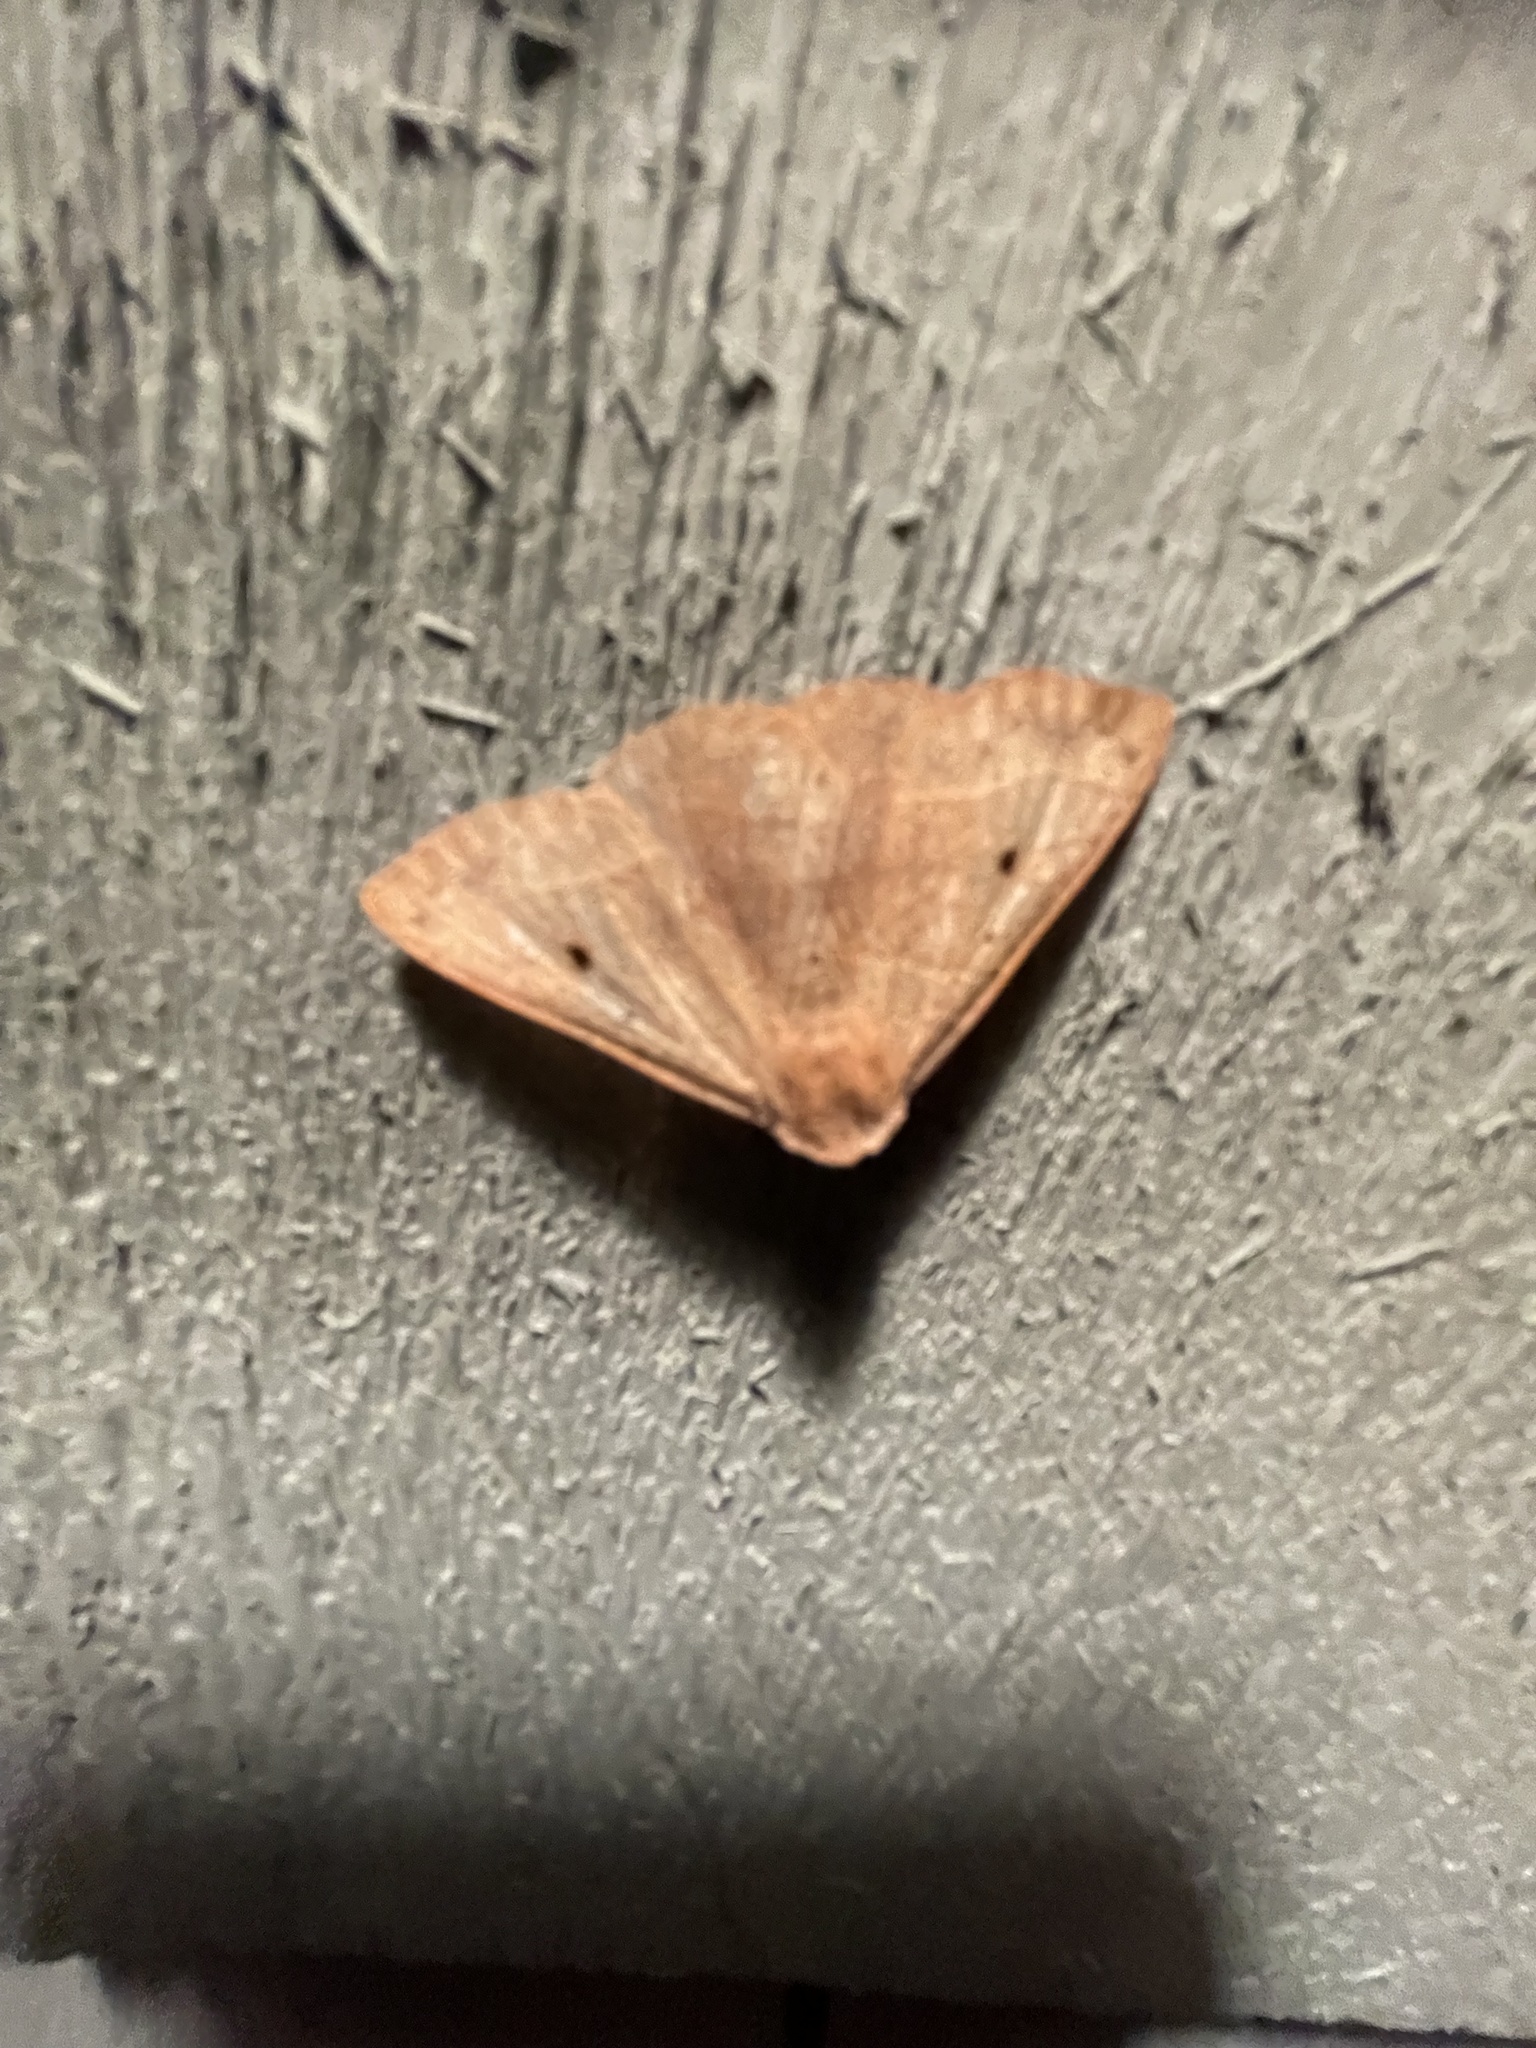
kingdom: Animalia
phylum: Arthropoda
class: Insecta
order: Lepidoptera
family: Erebidae
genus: Panopoda
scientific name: Panopoda rufimargo
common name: Red-lined panopoda moth
